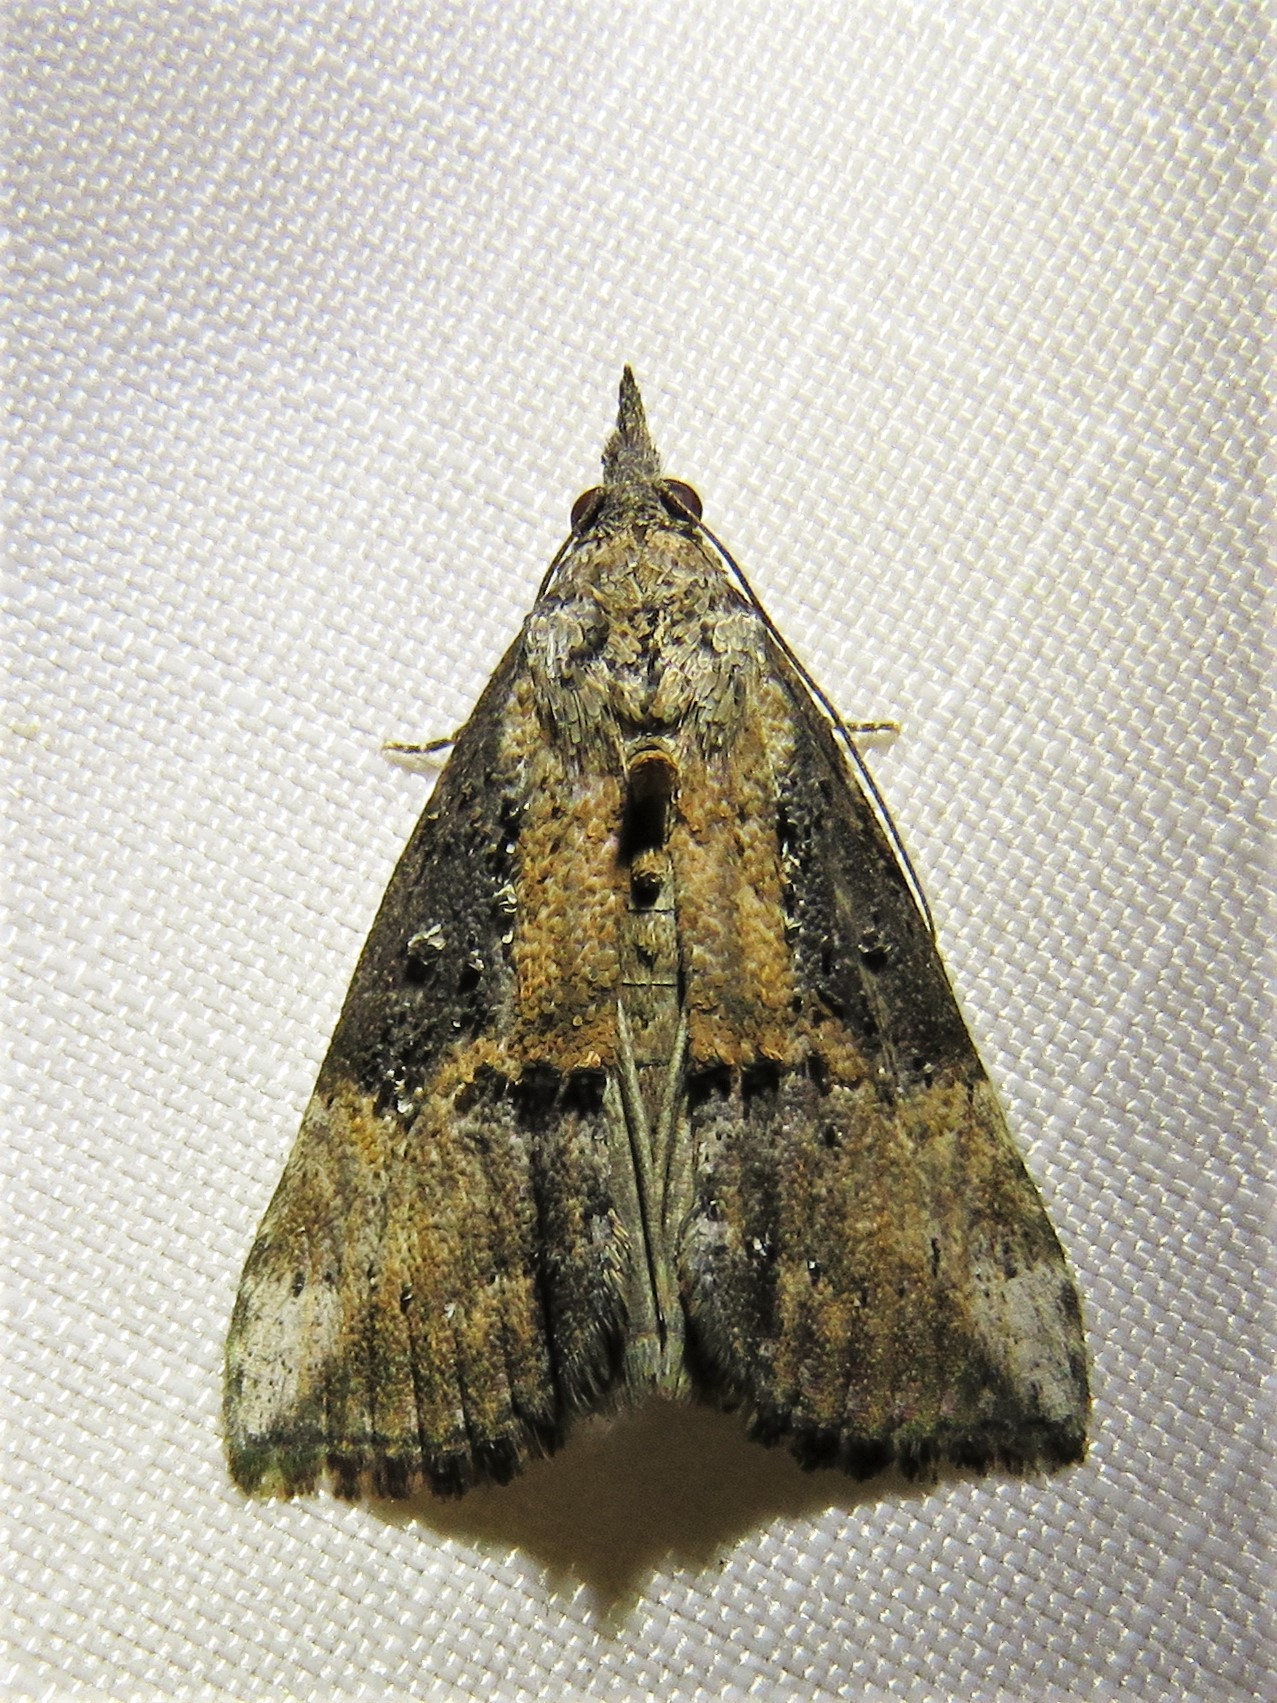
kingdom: Animalia
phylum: Arthropoda
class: Insecta
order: Lepidoptera
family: Erebidae
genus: Hypena
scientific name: Hypena scabra
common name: Green cloverworm
